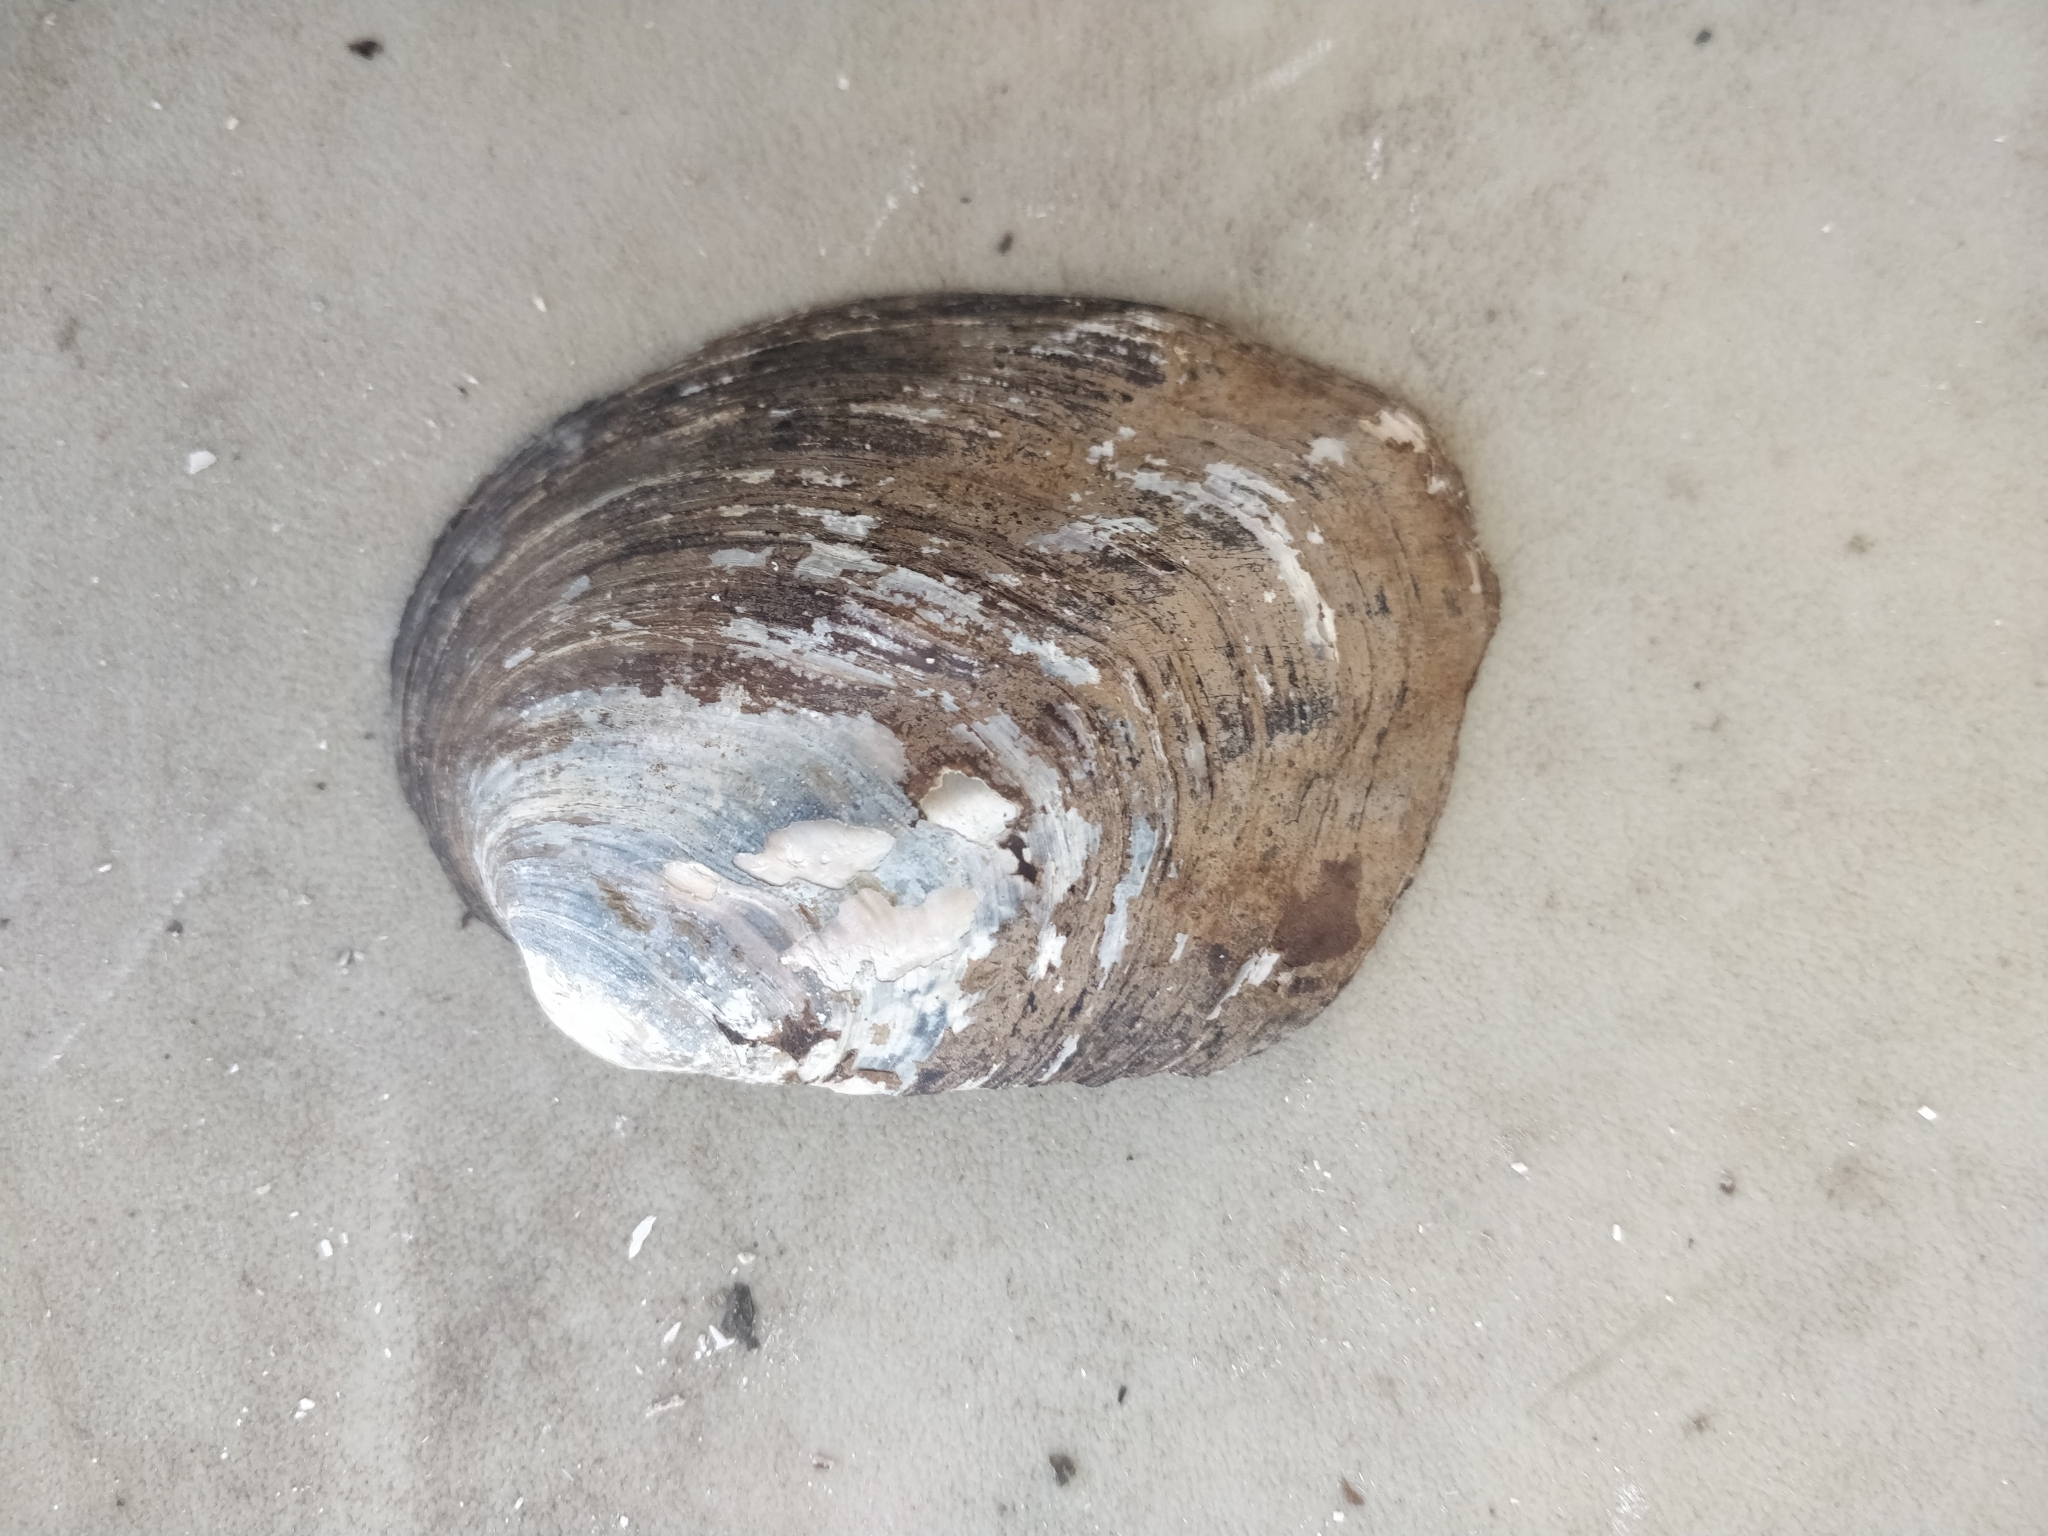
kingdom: Animalia
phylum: Mollusca
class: Bivalvia
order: Unionida
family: Unionidae
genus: Amblema
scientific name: Amblema plicata
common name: Threeridge
